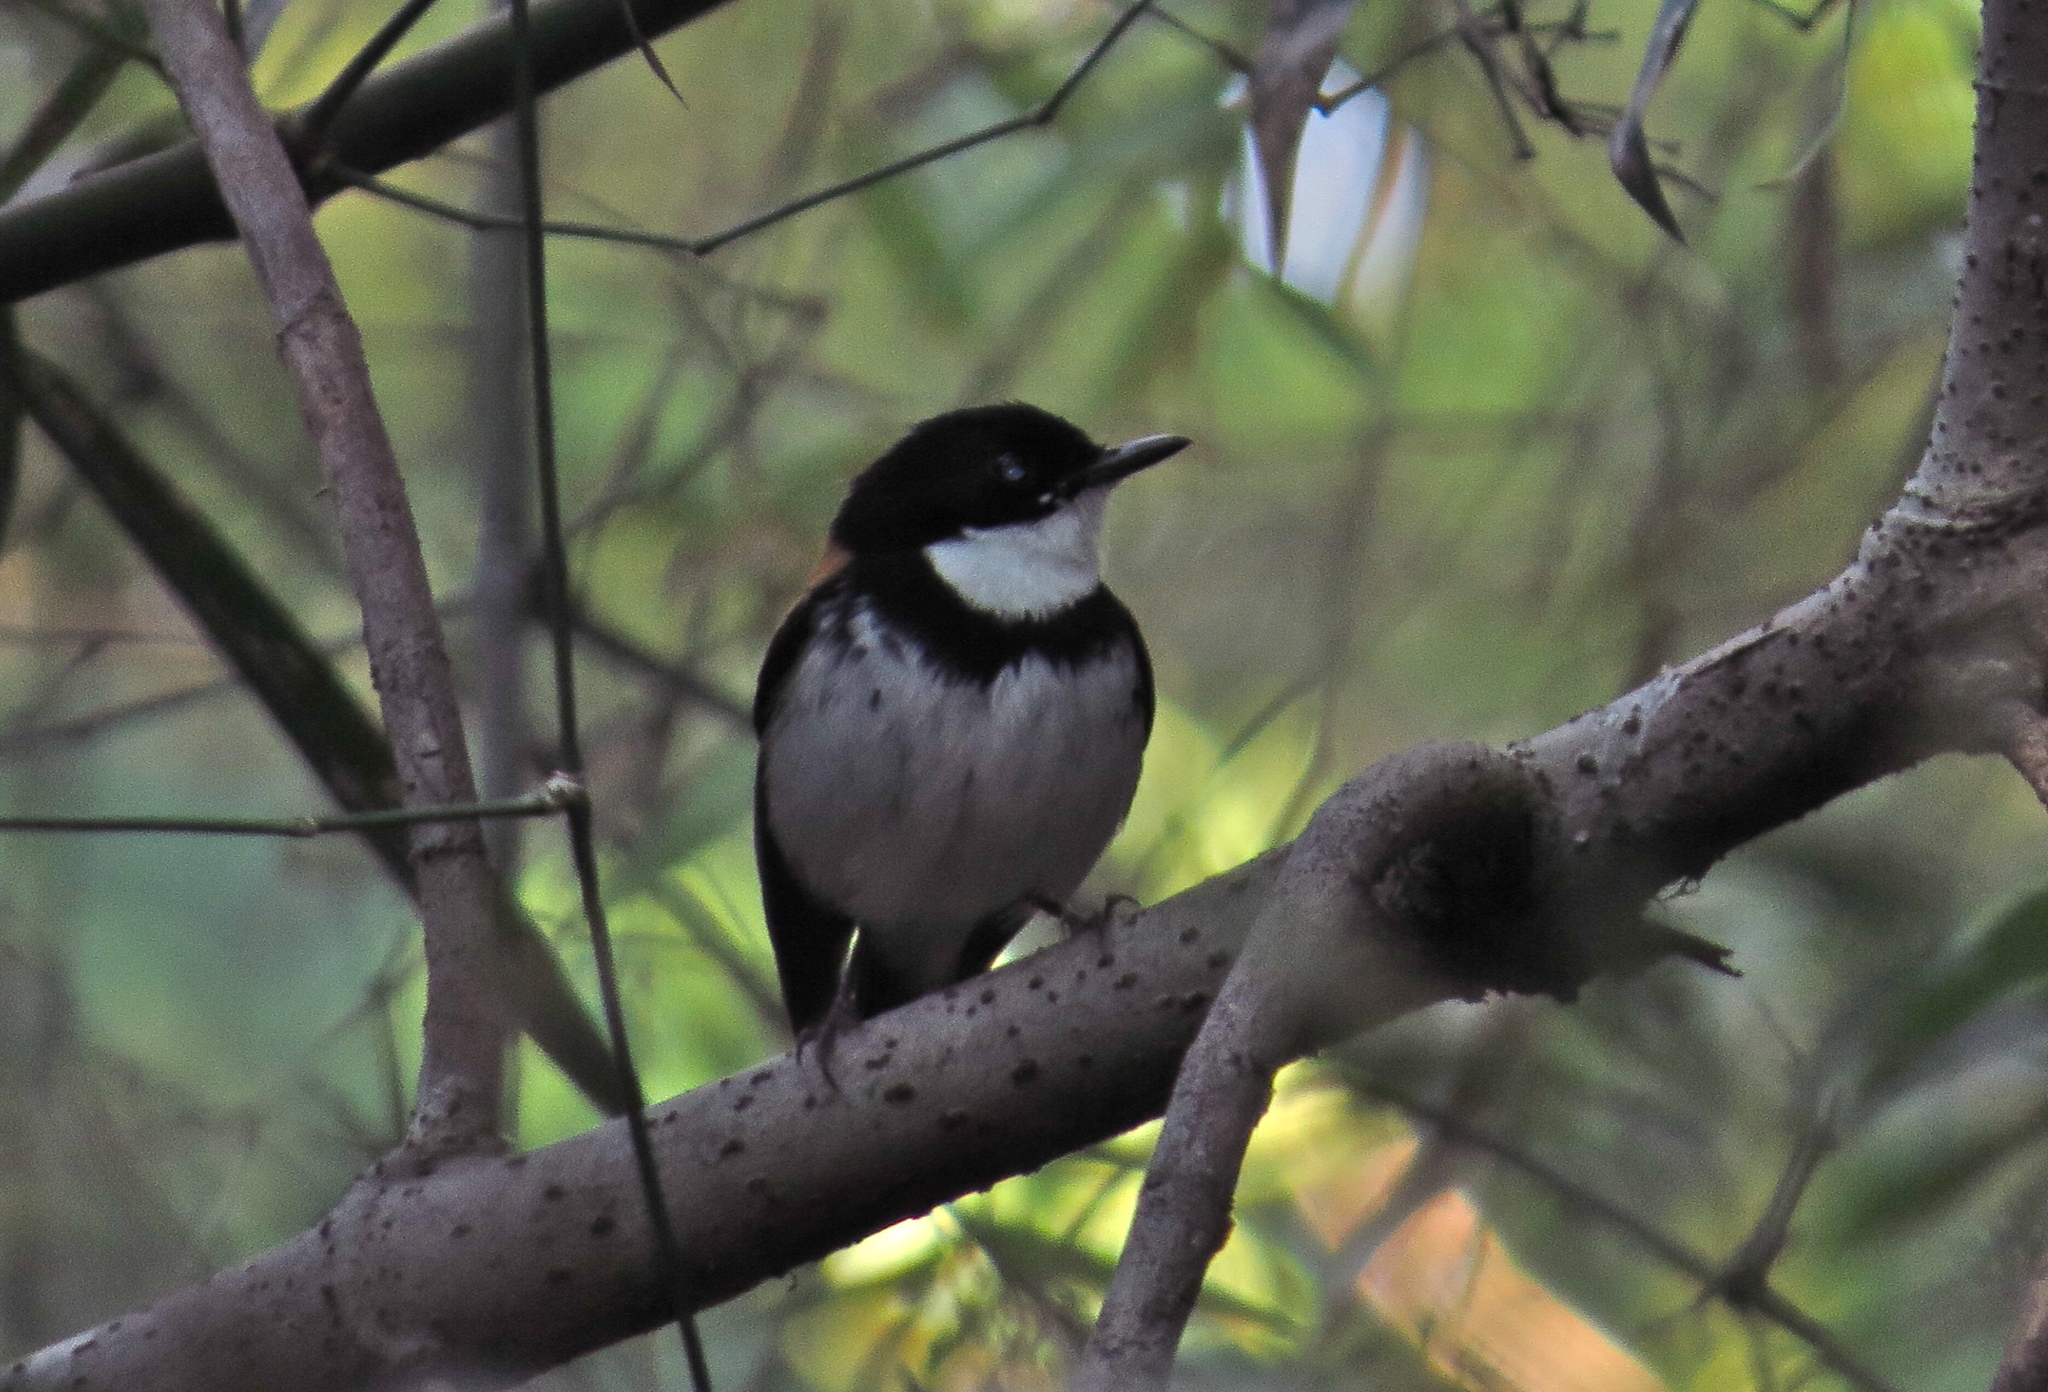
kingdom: Animalia
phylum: Chordata
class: Aves
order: Passeriformes
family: Muscicapidae
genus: Ficedula
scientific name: Ficedula timorensis
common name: Black-banded flycatcher
